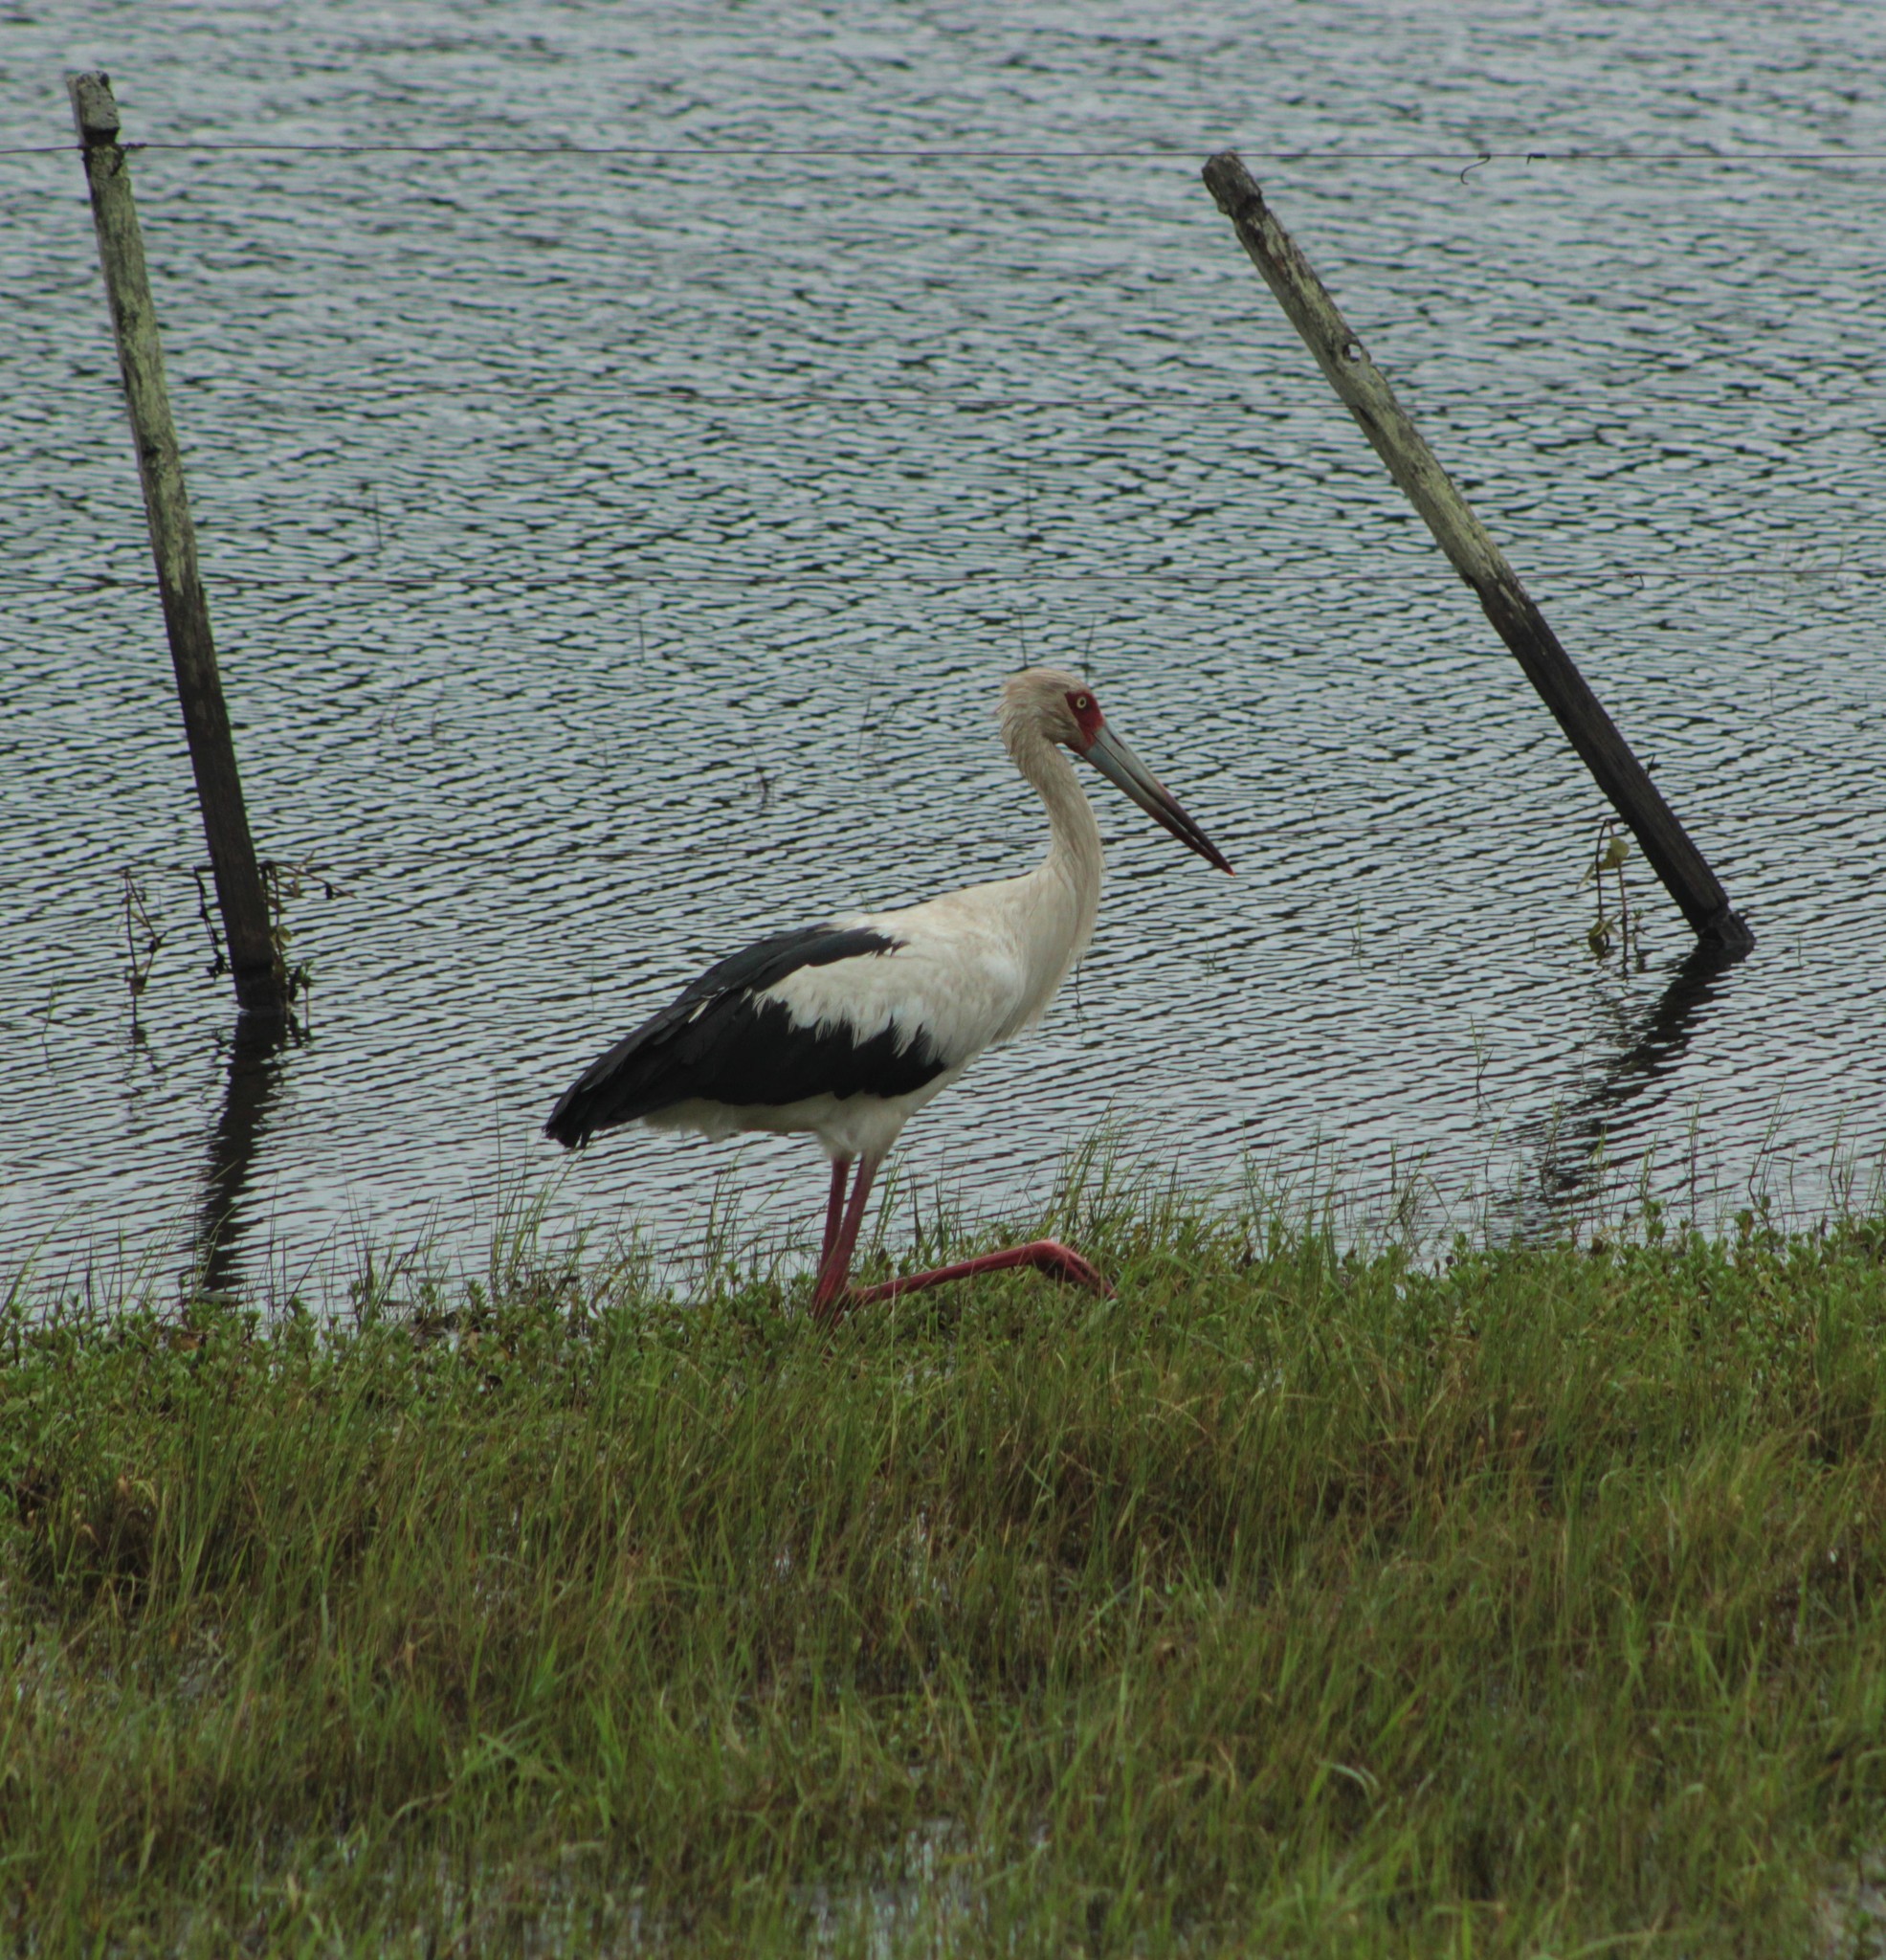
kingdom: Animalia
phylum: Chordata
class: Aves
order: Ciconiiformes
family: Ciconiidae
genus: Ciconia
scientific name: Ciconia maguari
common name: Maguari stork
